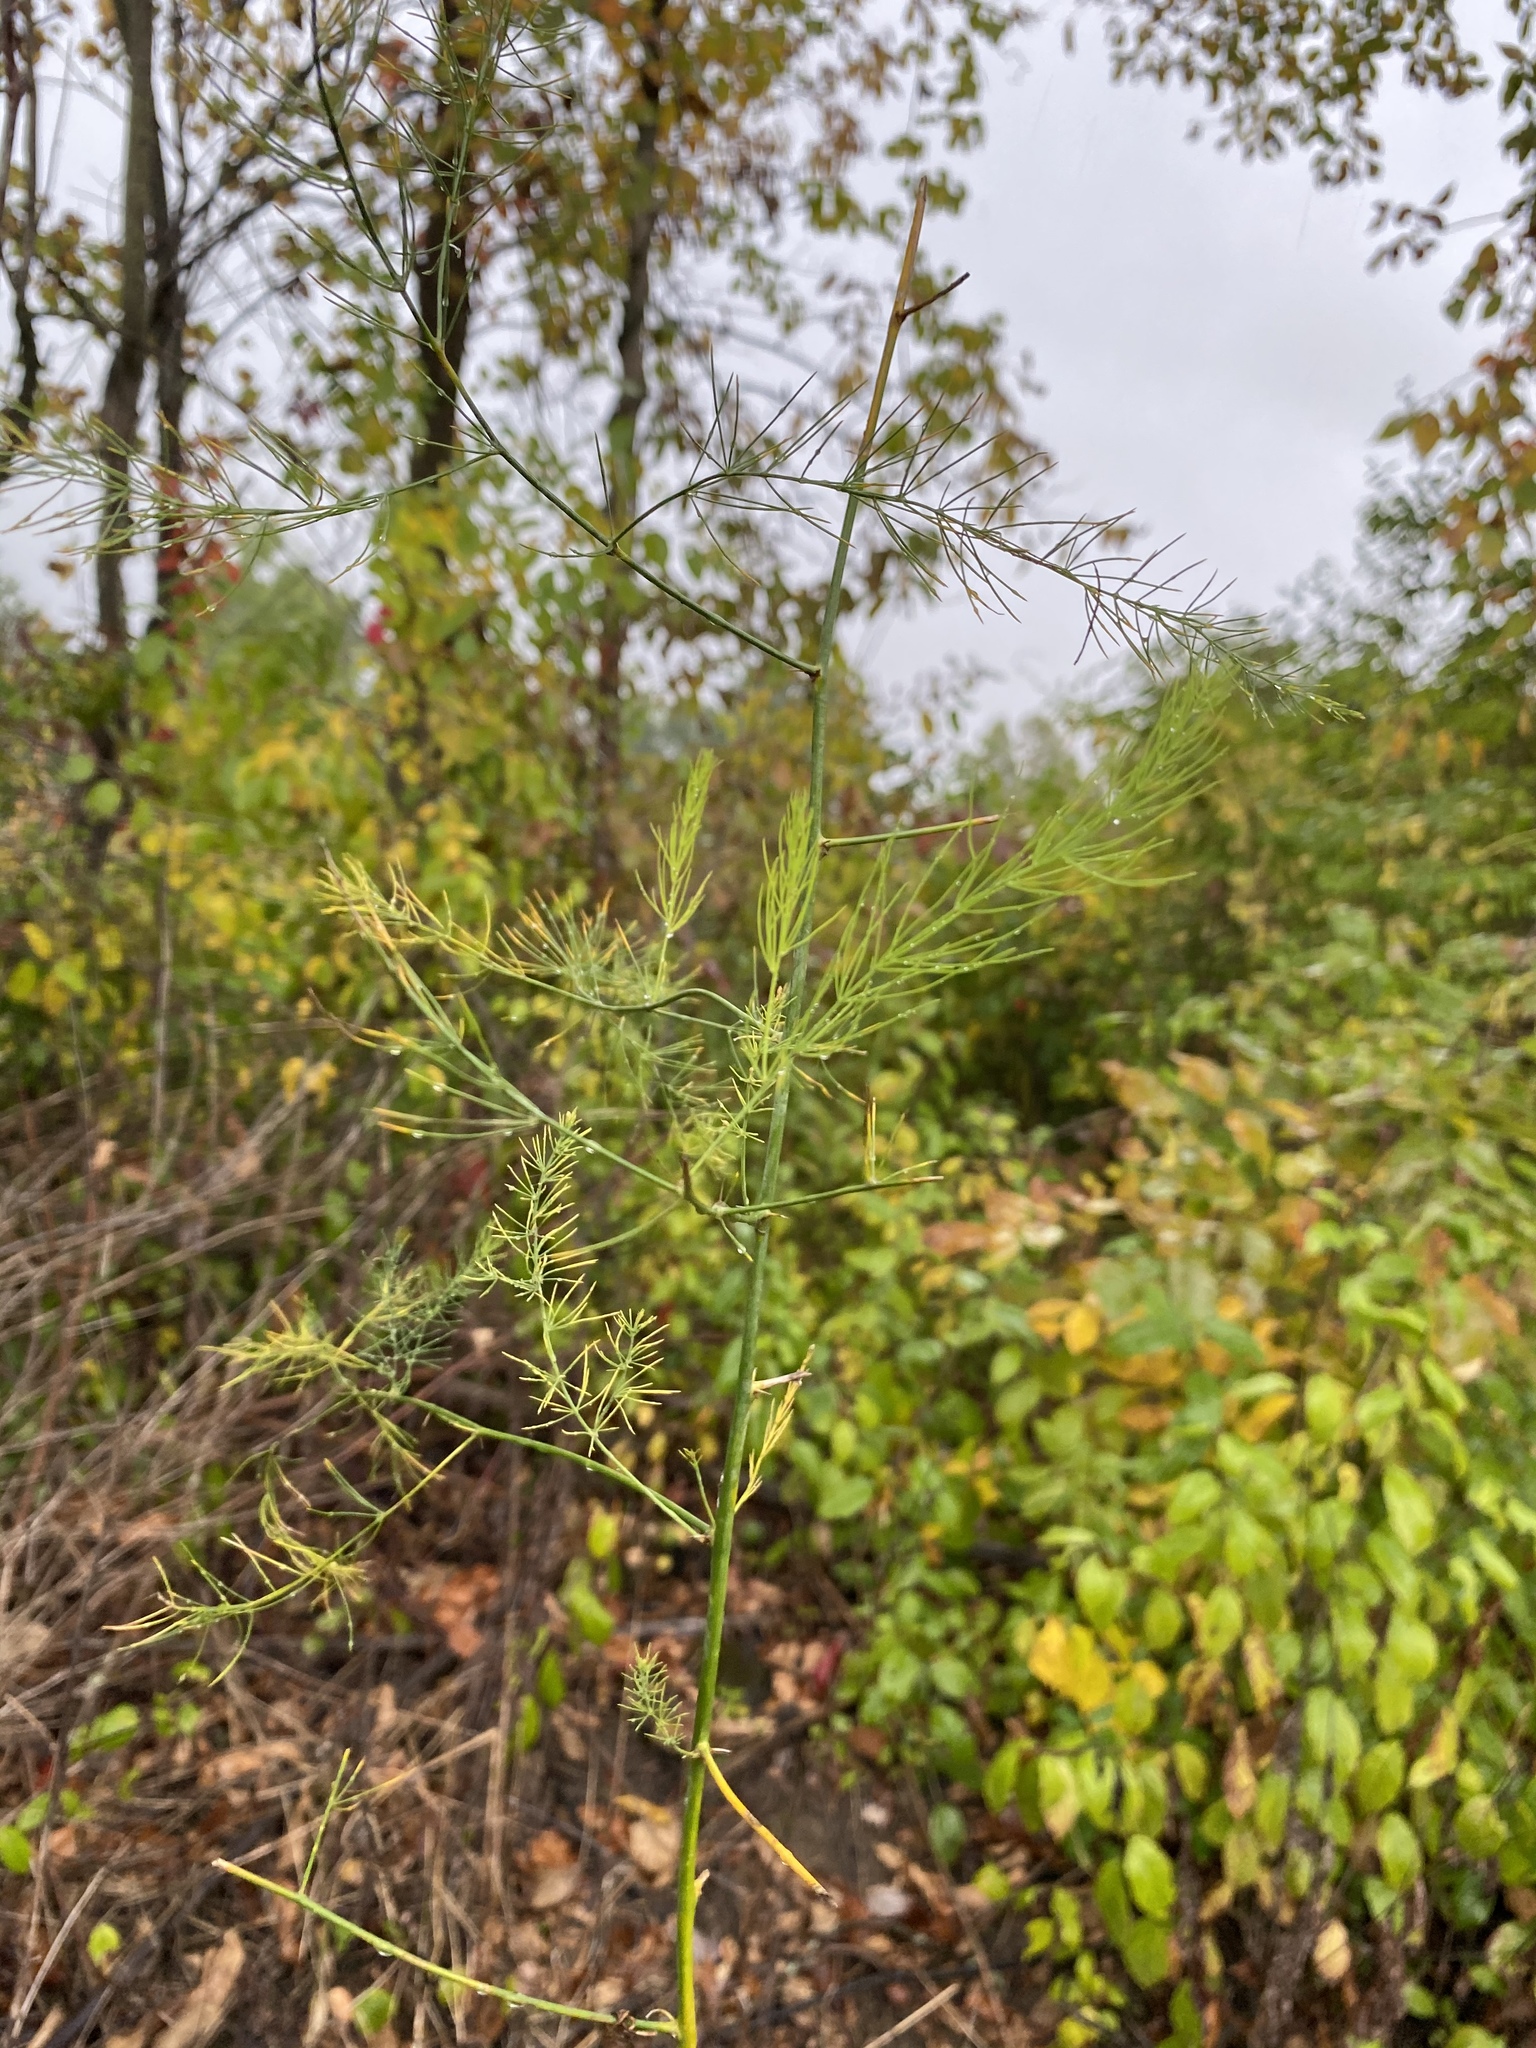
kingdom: Plantae
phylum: Tracheophyta
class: Liliopsida
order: Asparagales
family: Asparagaceae
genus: Asparagus
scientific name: Asparagus officinalis
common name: Garden asparagus
